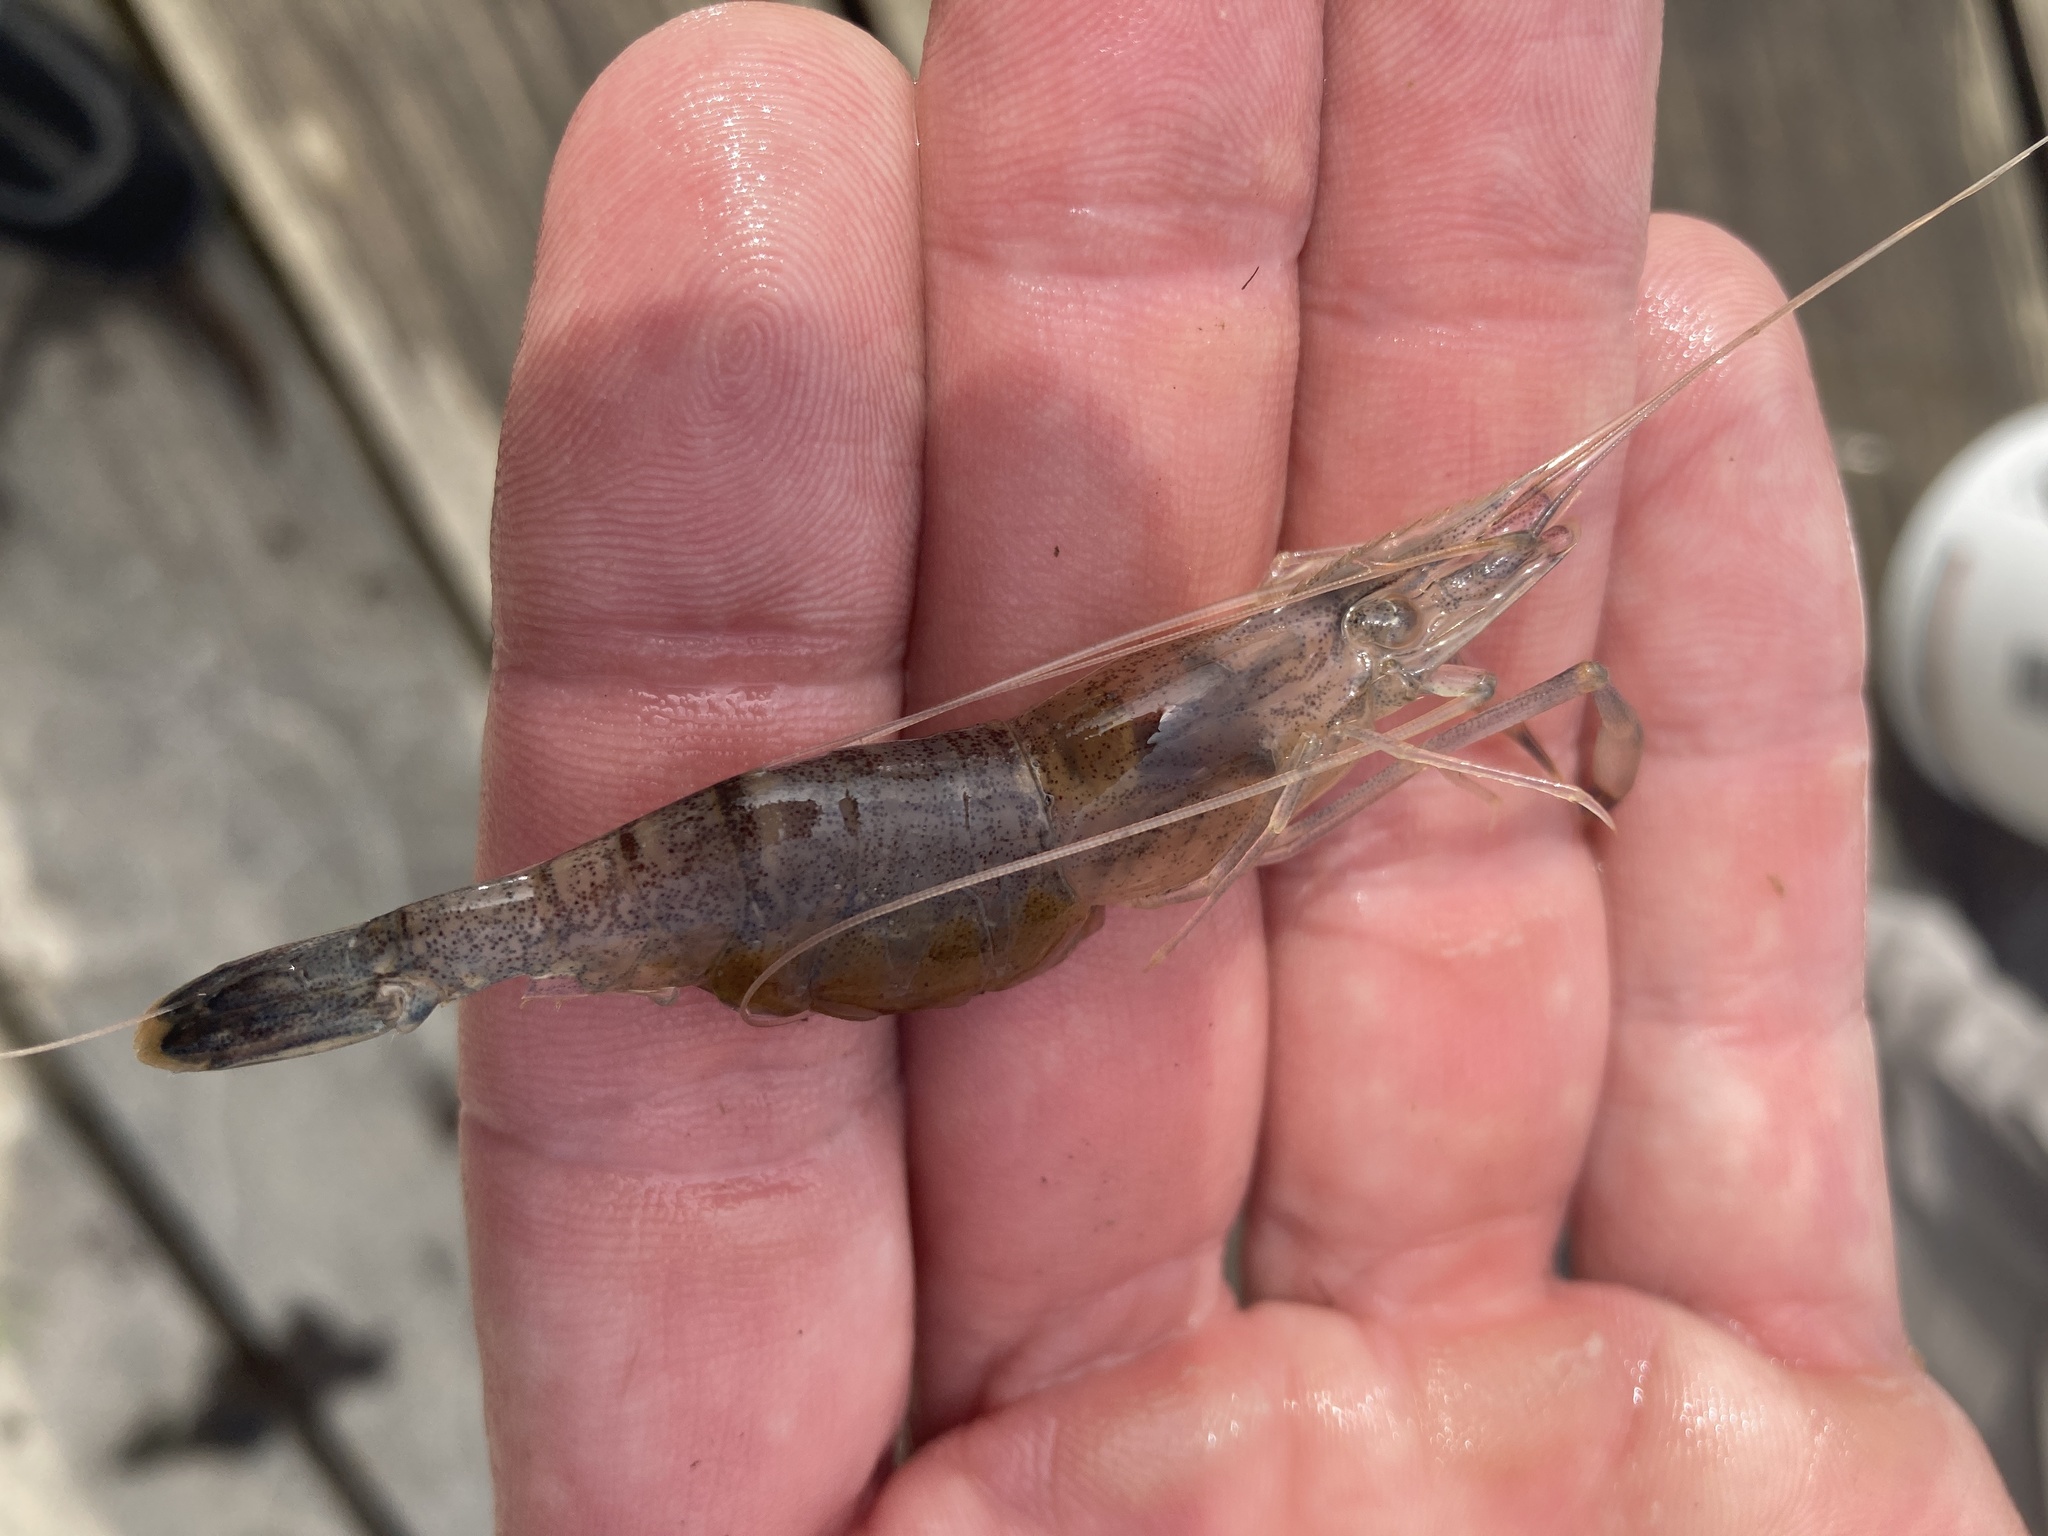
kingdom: Animalia
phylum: Arthropoda
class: Malacostraca
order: Decapoda
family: Palaemonidae
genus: Macrobrachium
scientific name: Macrobrachium ohione
